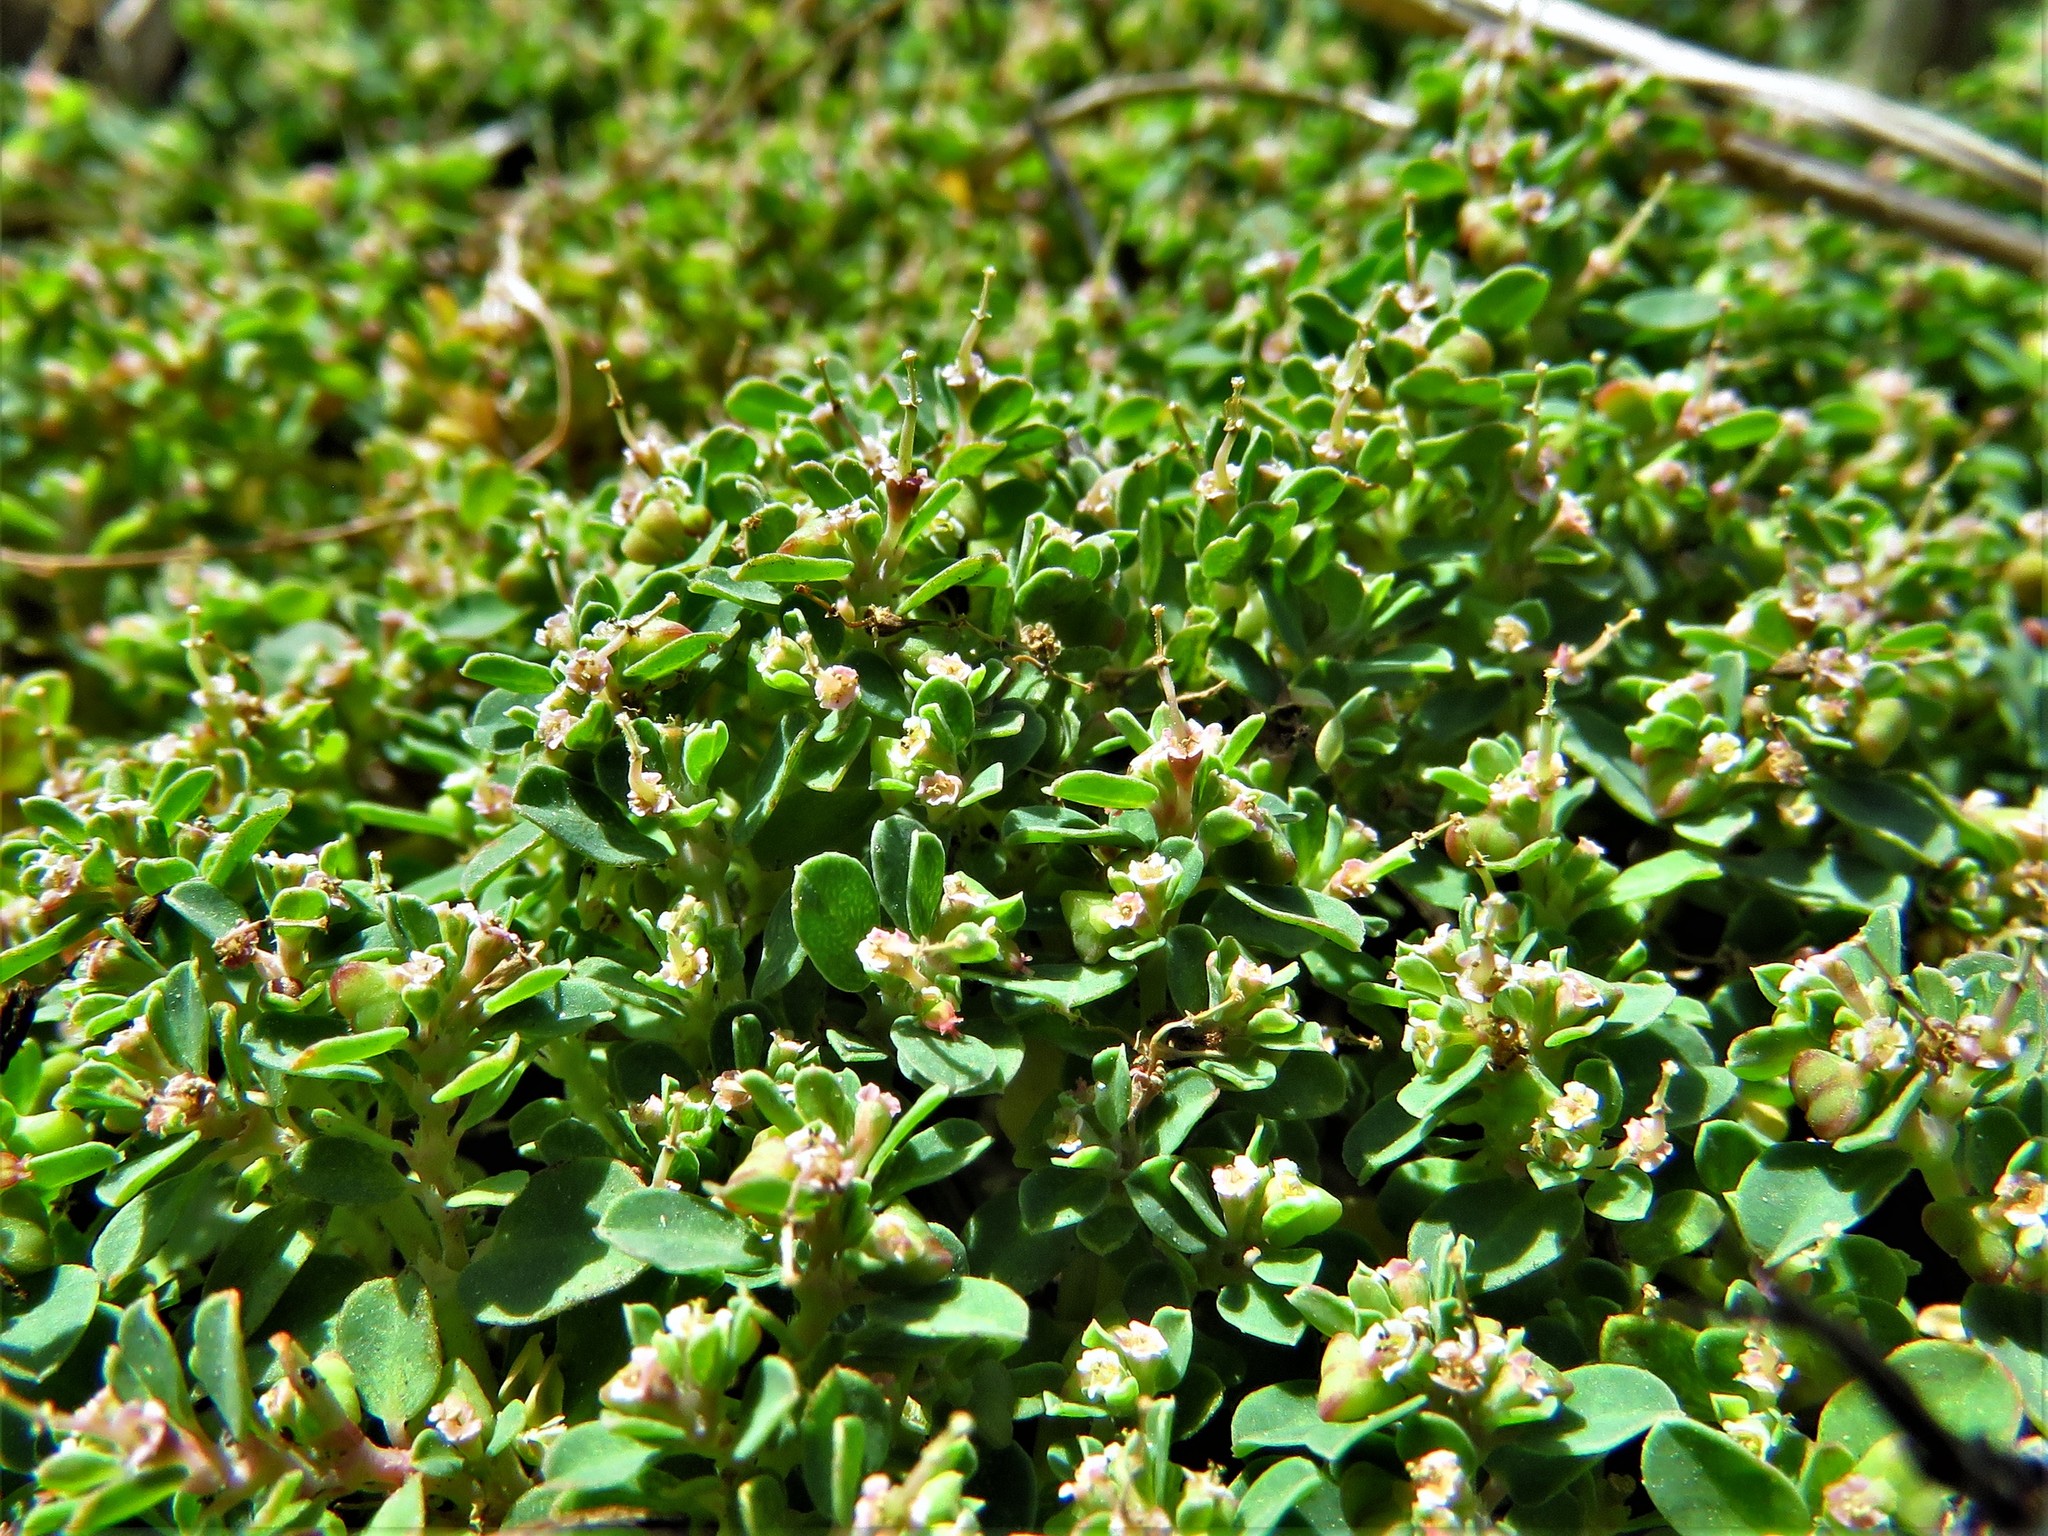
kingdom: Plantae
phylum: Tracheophyta
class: Magnoliopsida
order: Malpighiales
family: Euphorbiaceae
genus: Euphorbia
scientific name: Euphorbia serpens
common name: Matted sandmat
